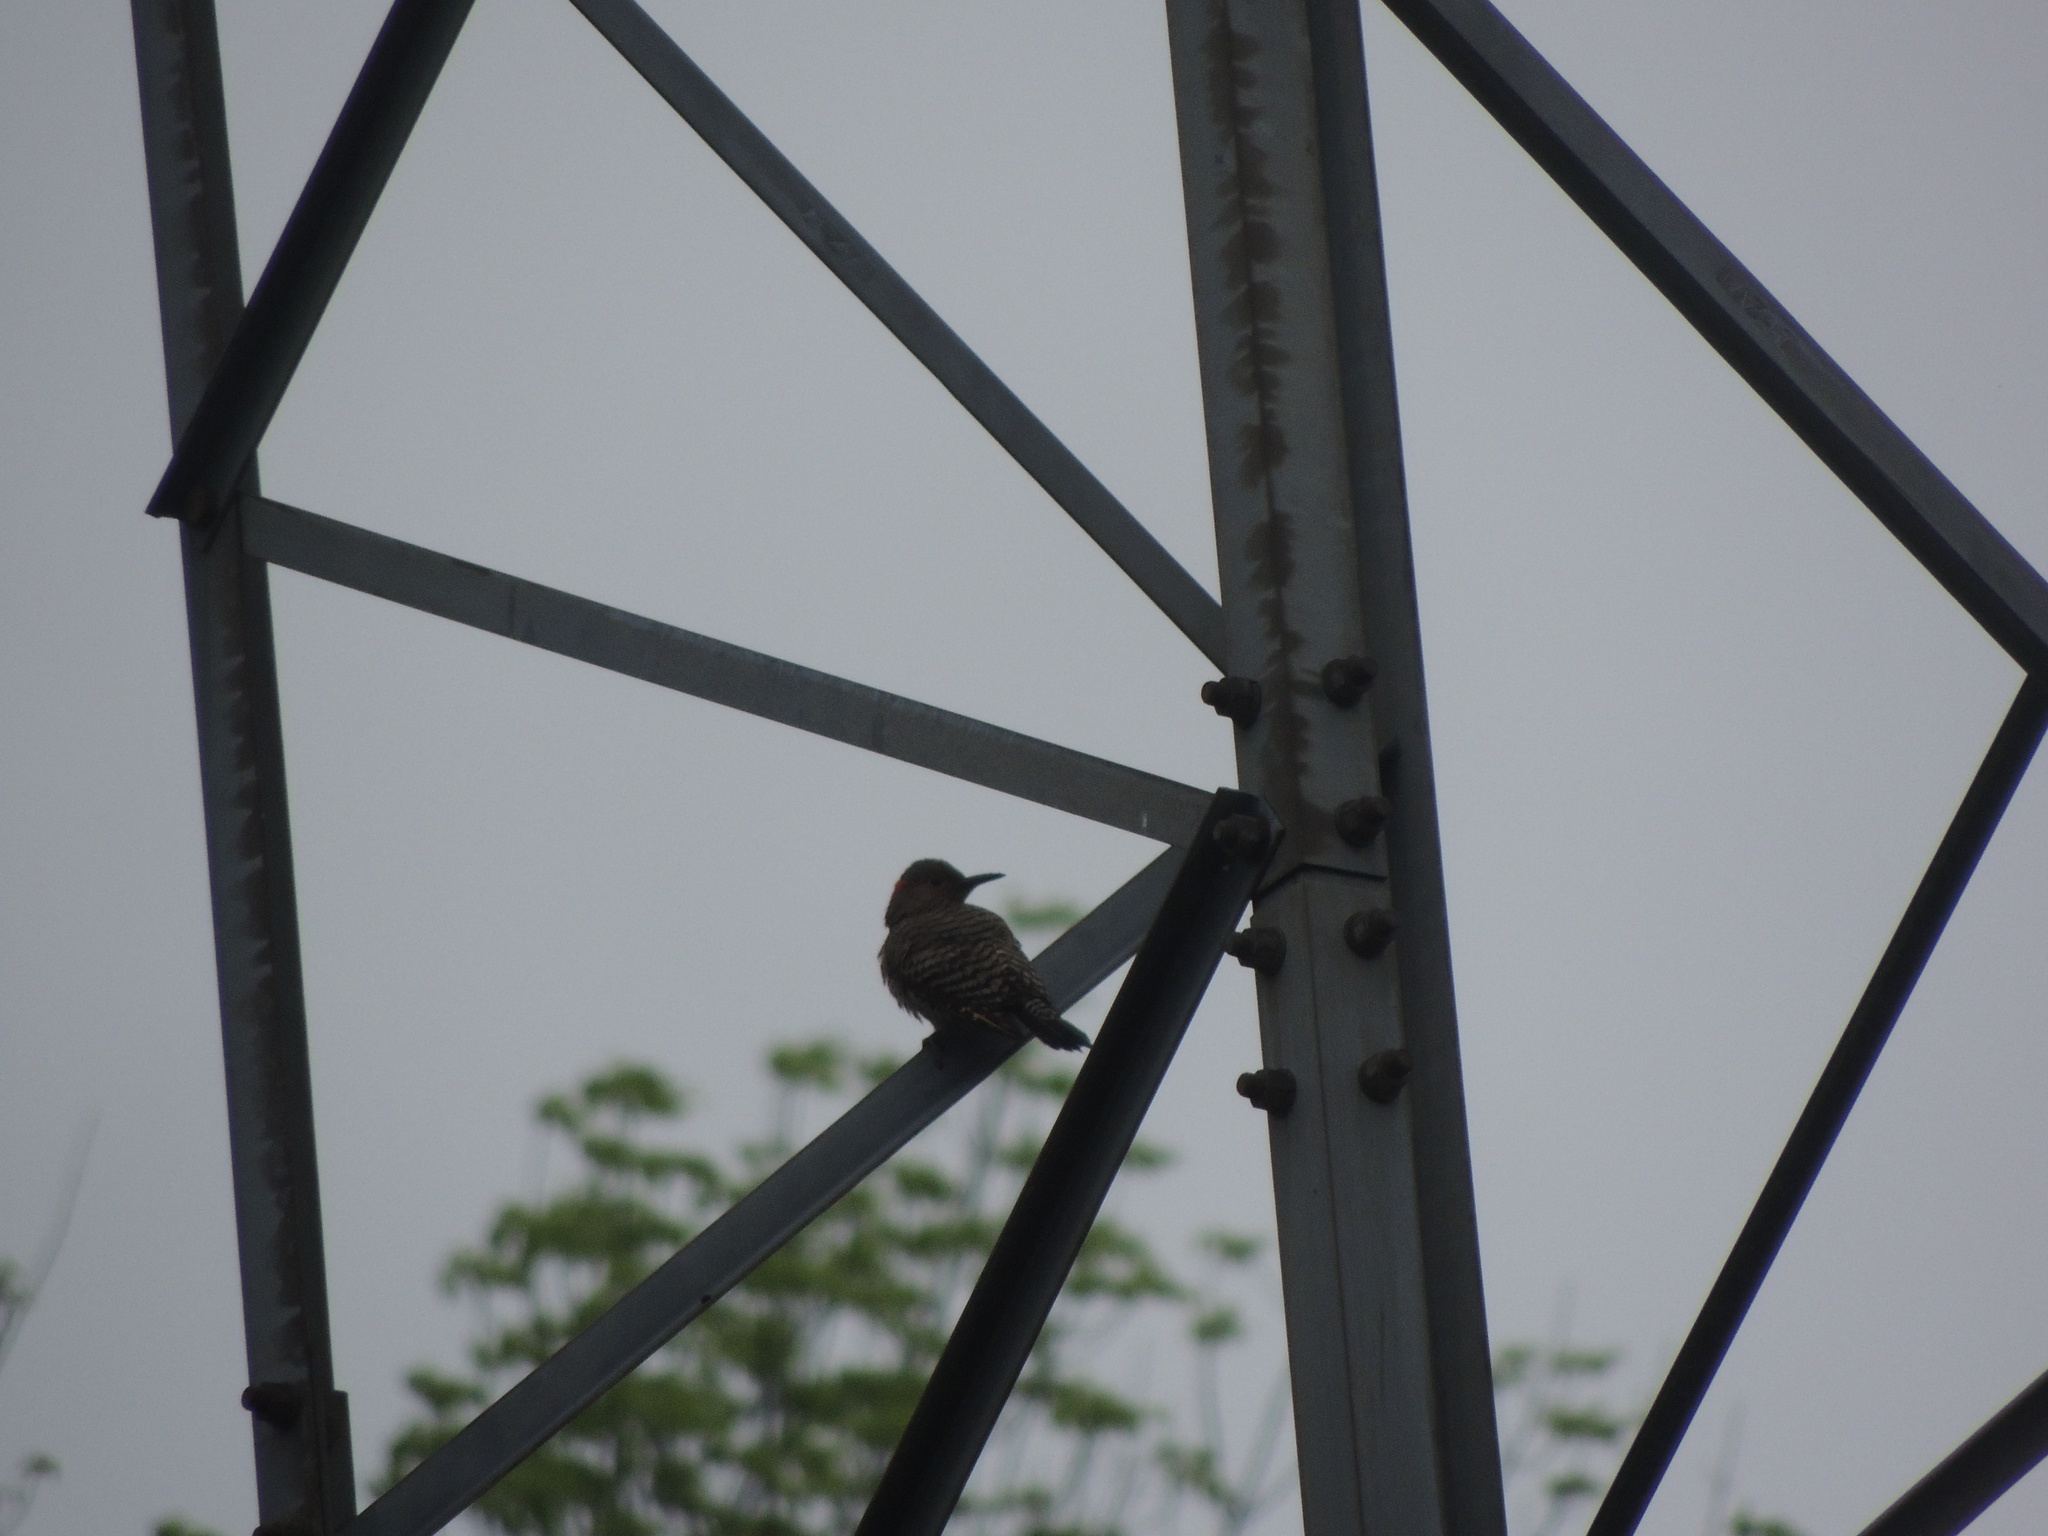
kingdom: Animalia
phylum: Chordata
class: Aves
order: Piciformes
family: Picidae
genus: Colaptes
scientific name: Colaptes auratus
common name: Northern flicker
